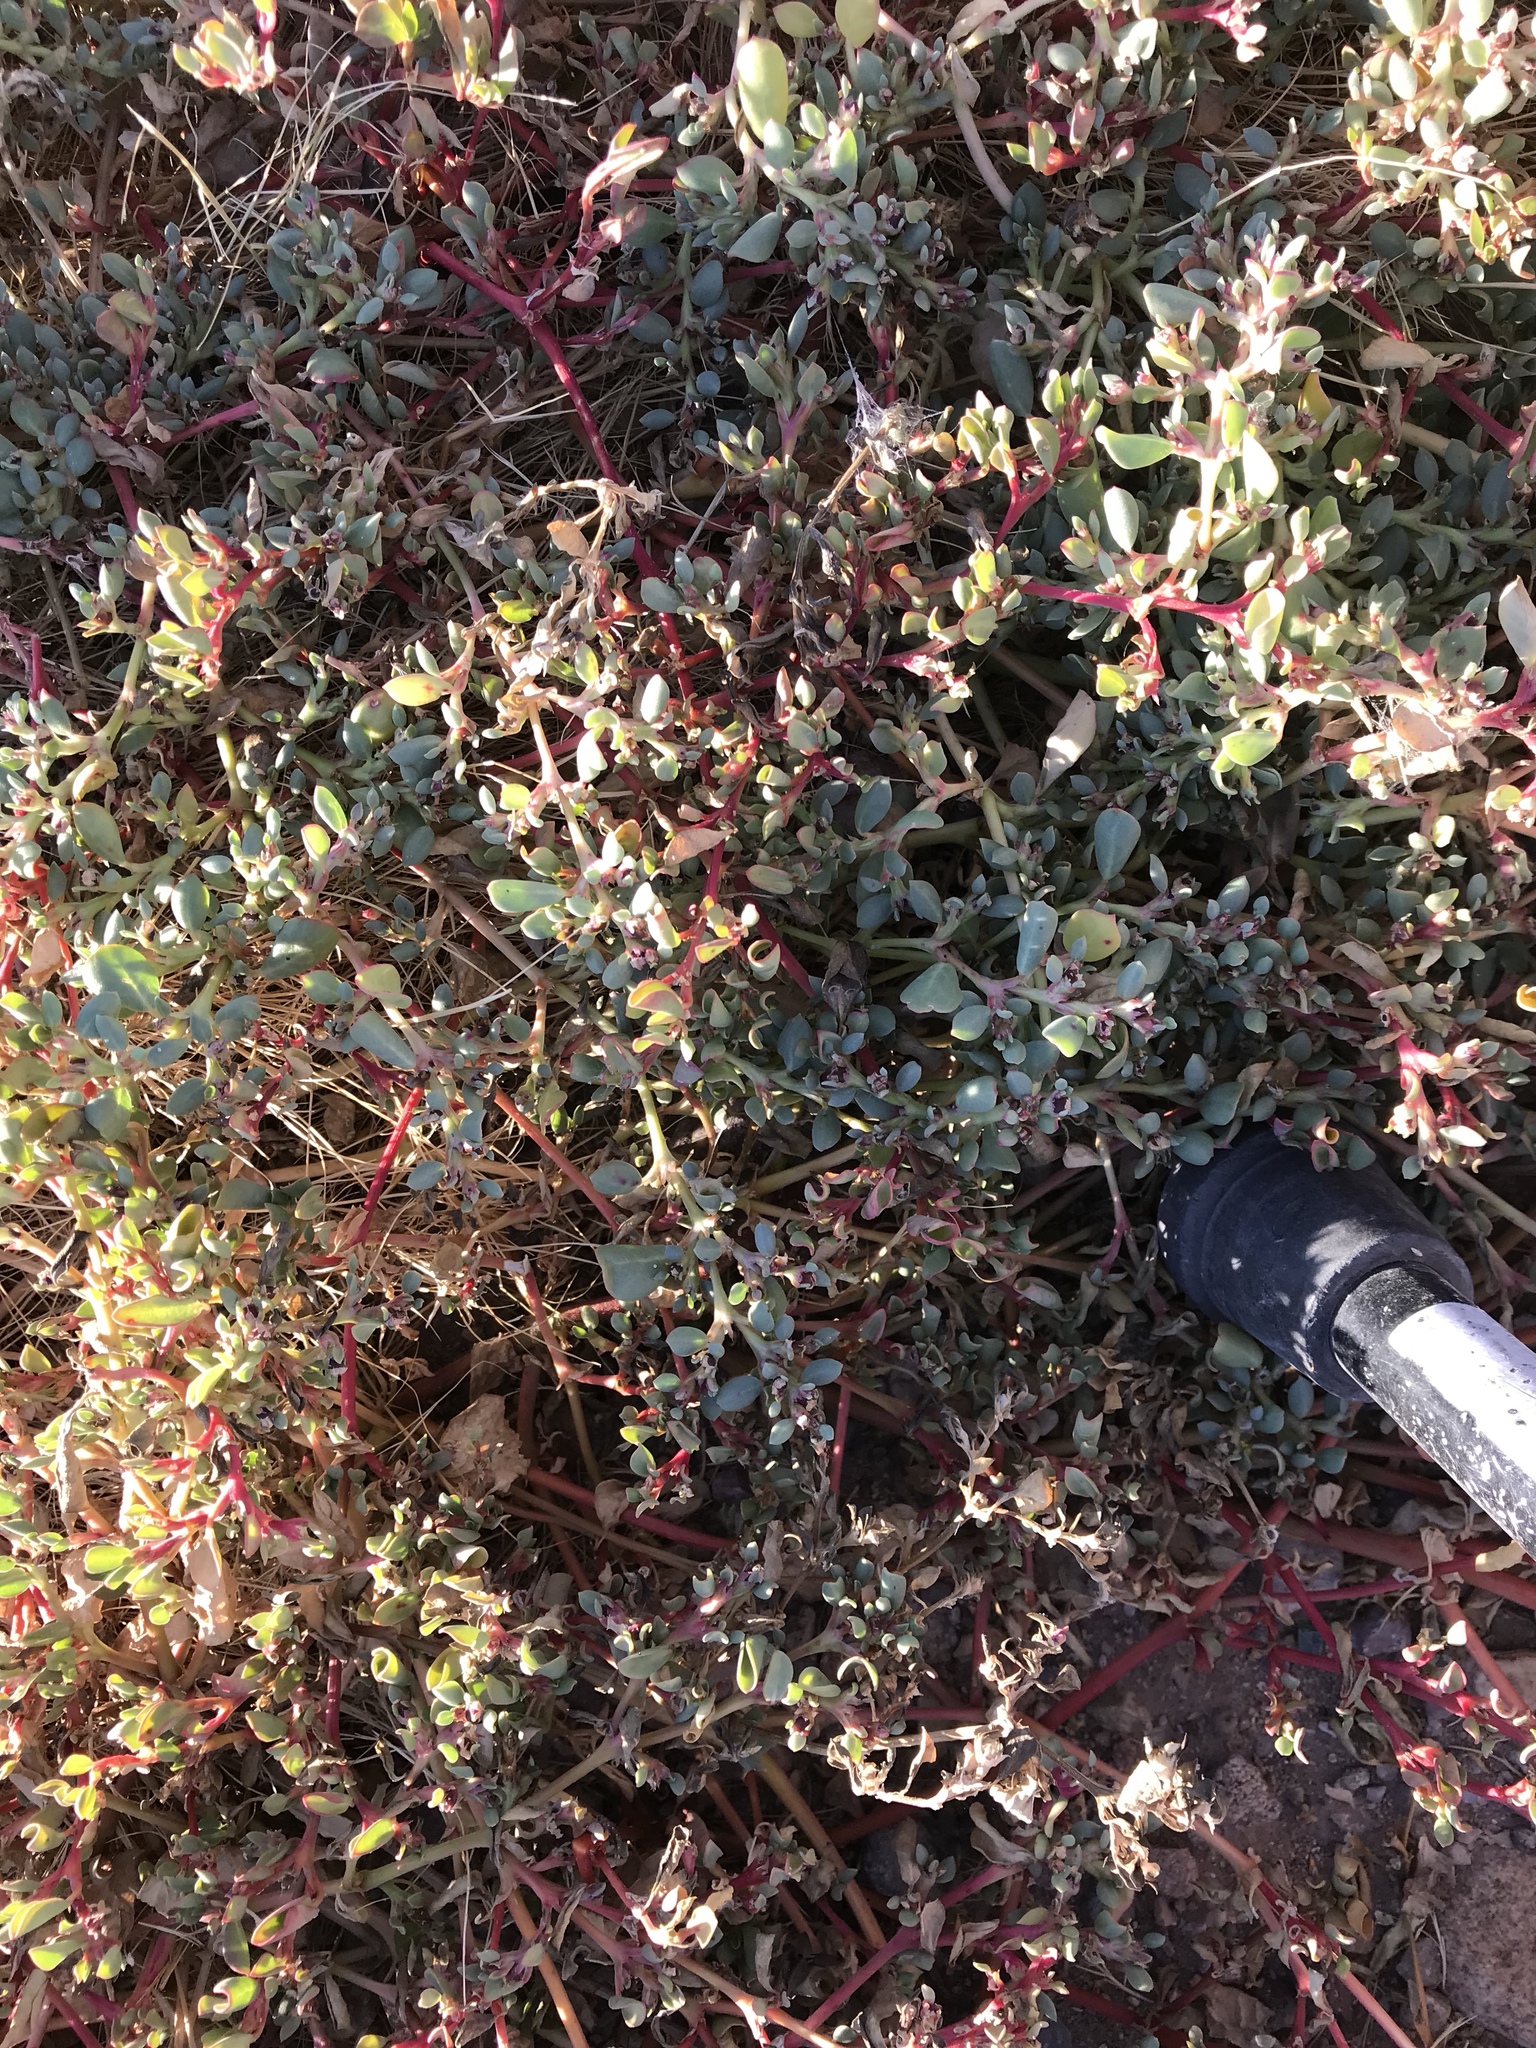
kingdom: Plantae
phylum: Tracheophyta
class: Magnoliopsida
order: Caryophyllales
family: Portulacaceae
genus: Portulaca
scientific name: Portulaca oleracea
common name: Common purslane
